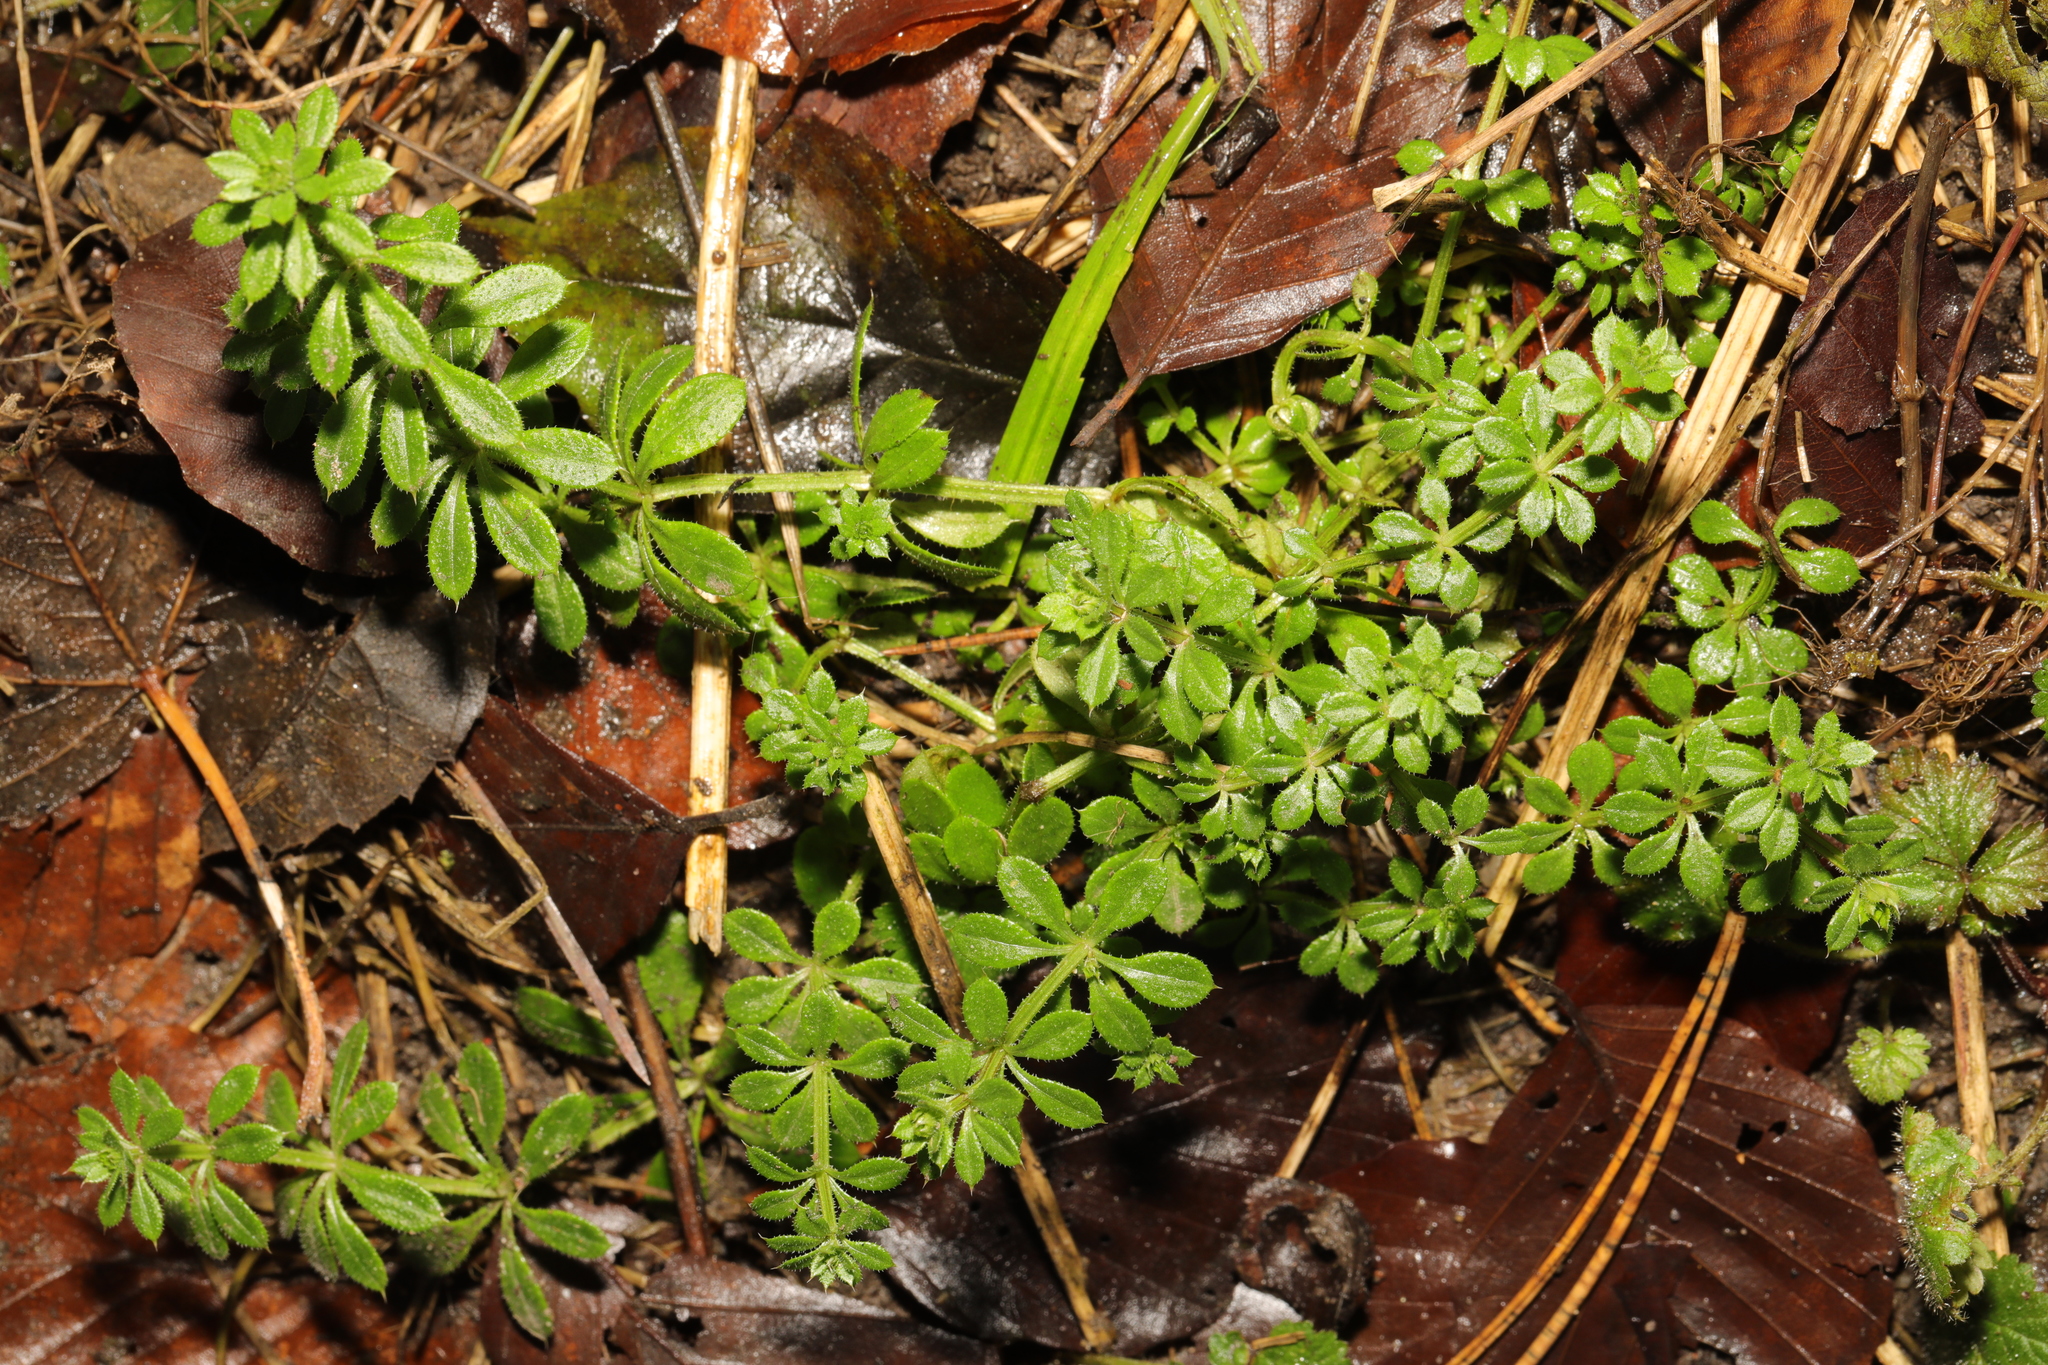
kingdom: Plantae
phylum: Tracheophyta
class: Magnoliopsida
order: Gentianales
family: Rubiaceae
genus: Galium
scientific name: Galium aparine
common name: Cleavers
